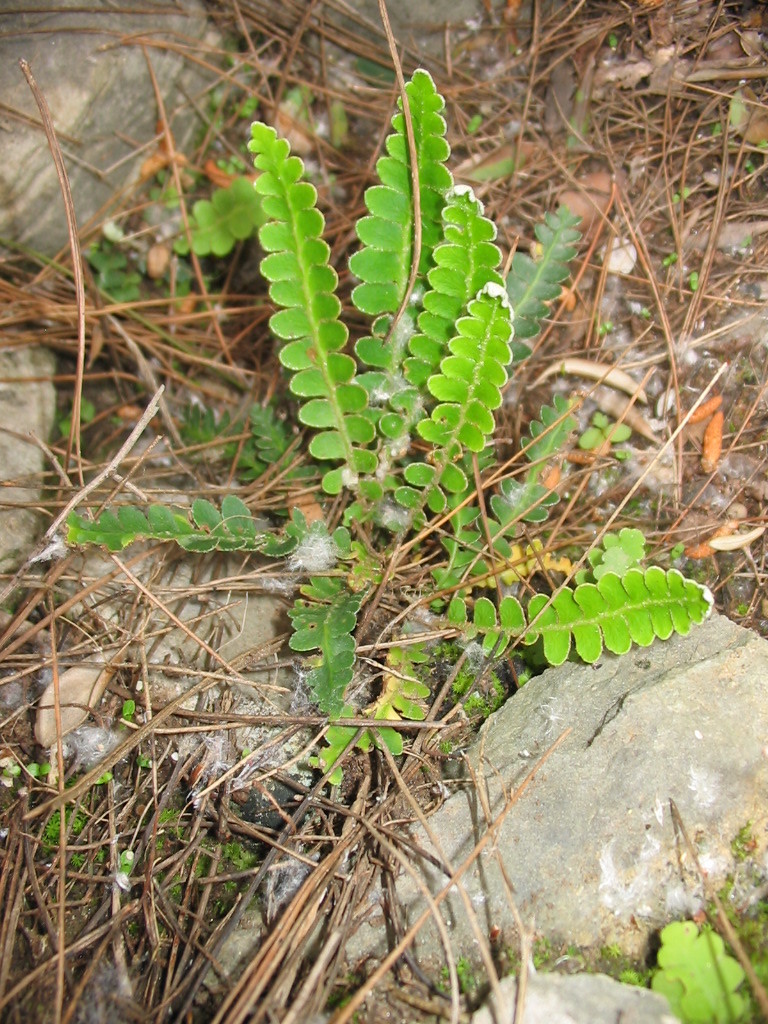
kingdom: Plantae
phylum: Tracheophyta
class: Polypodiopsida
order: Polypodiales
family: Aspleniaceae
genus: Asplenium
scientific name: Asplenium ceterach
